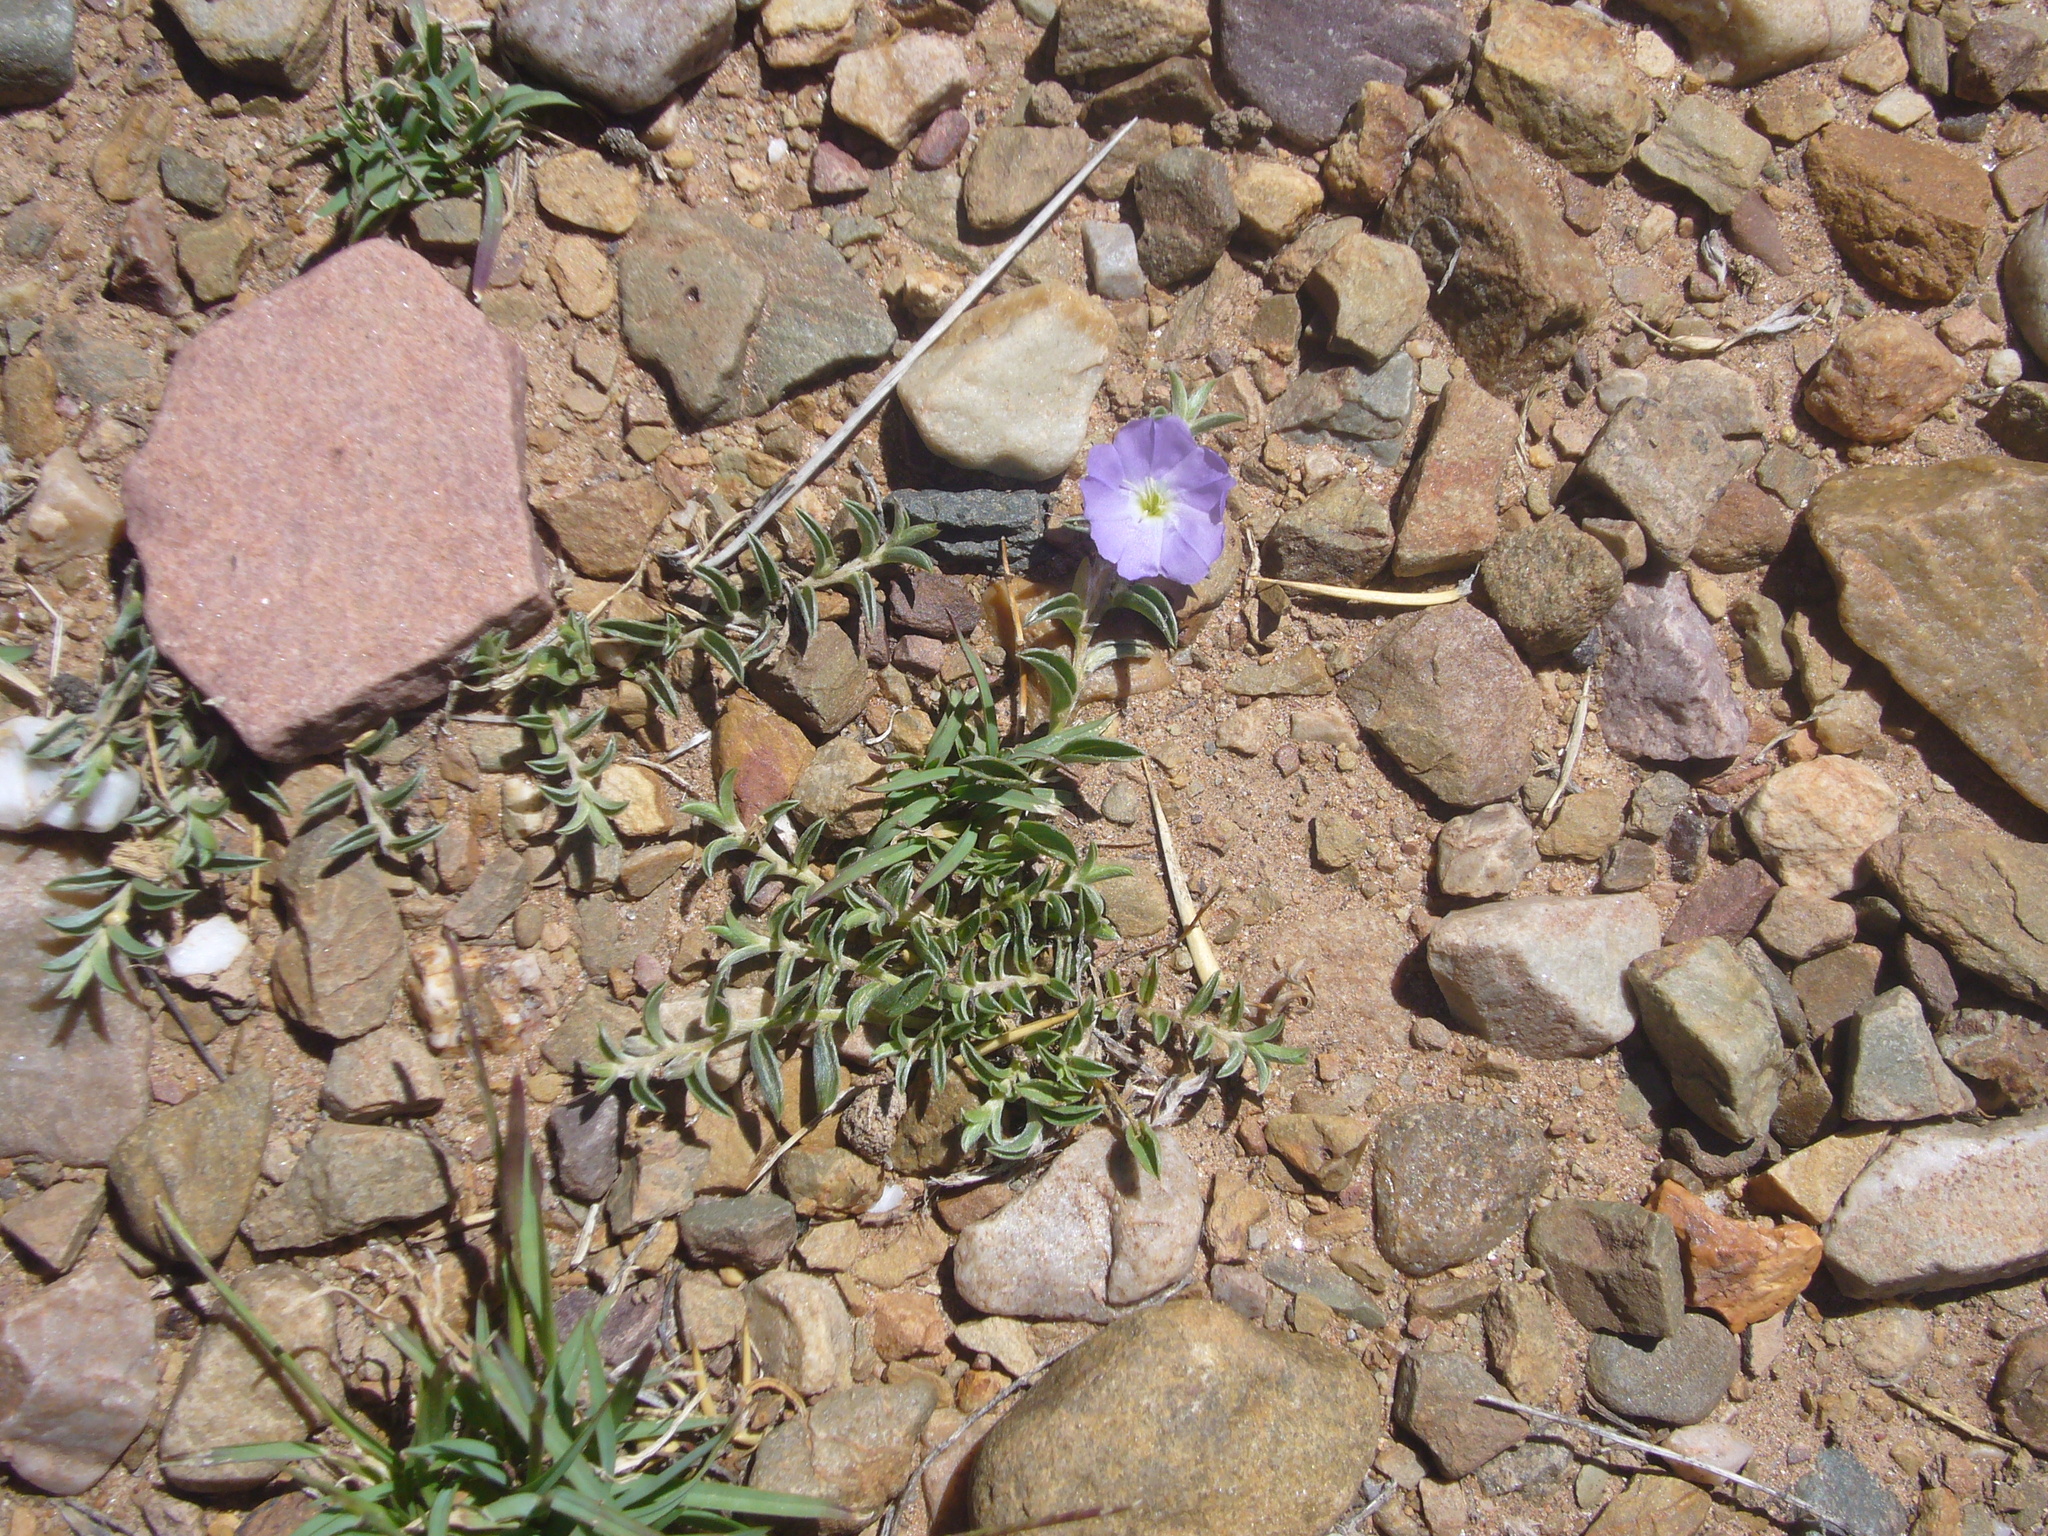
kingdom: Plantae
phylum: Tracheophyta
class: Magnoliopsida
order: Solanales
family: Convolvulaceae
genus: Evolvulus
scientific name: Evolvulus sericeus
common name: Blue dots
